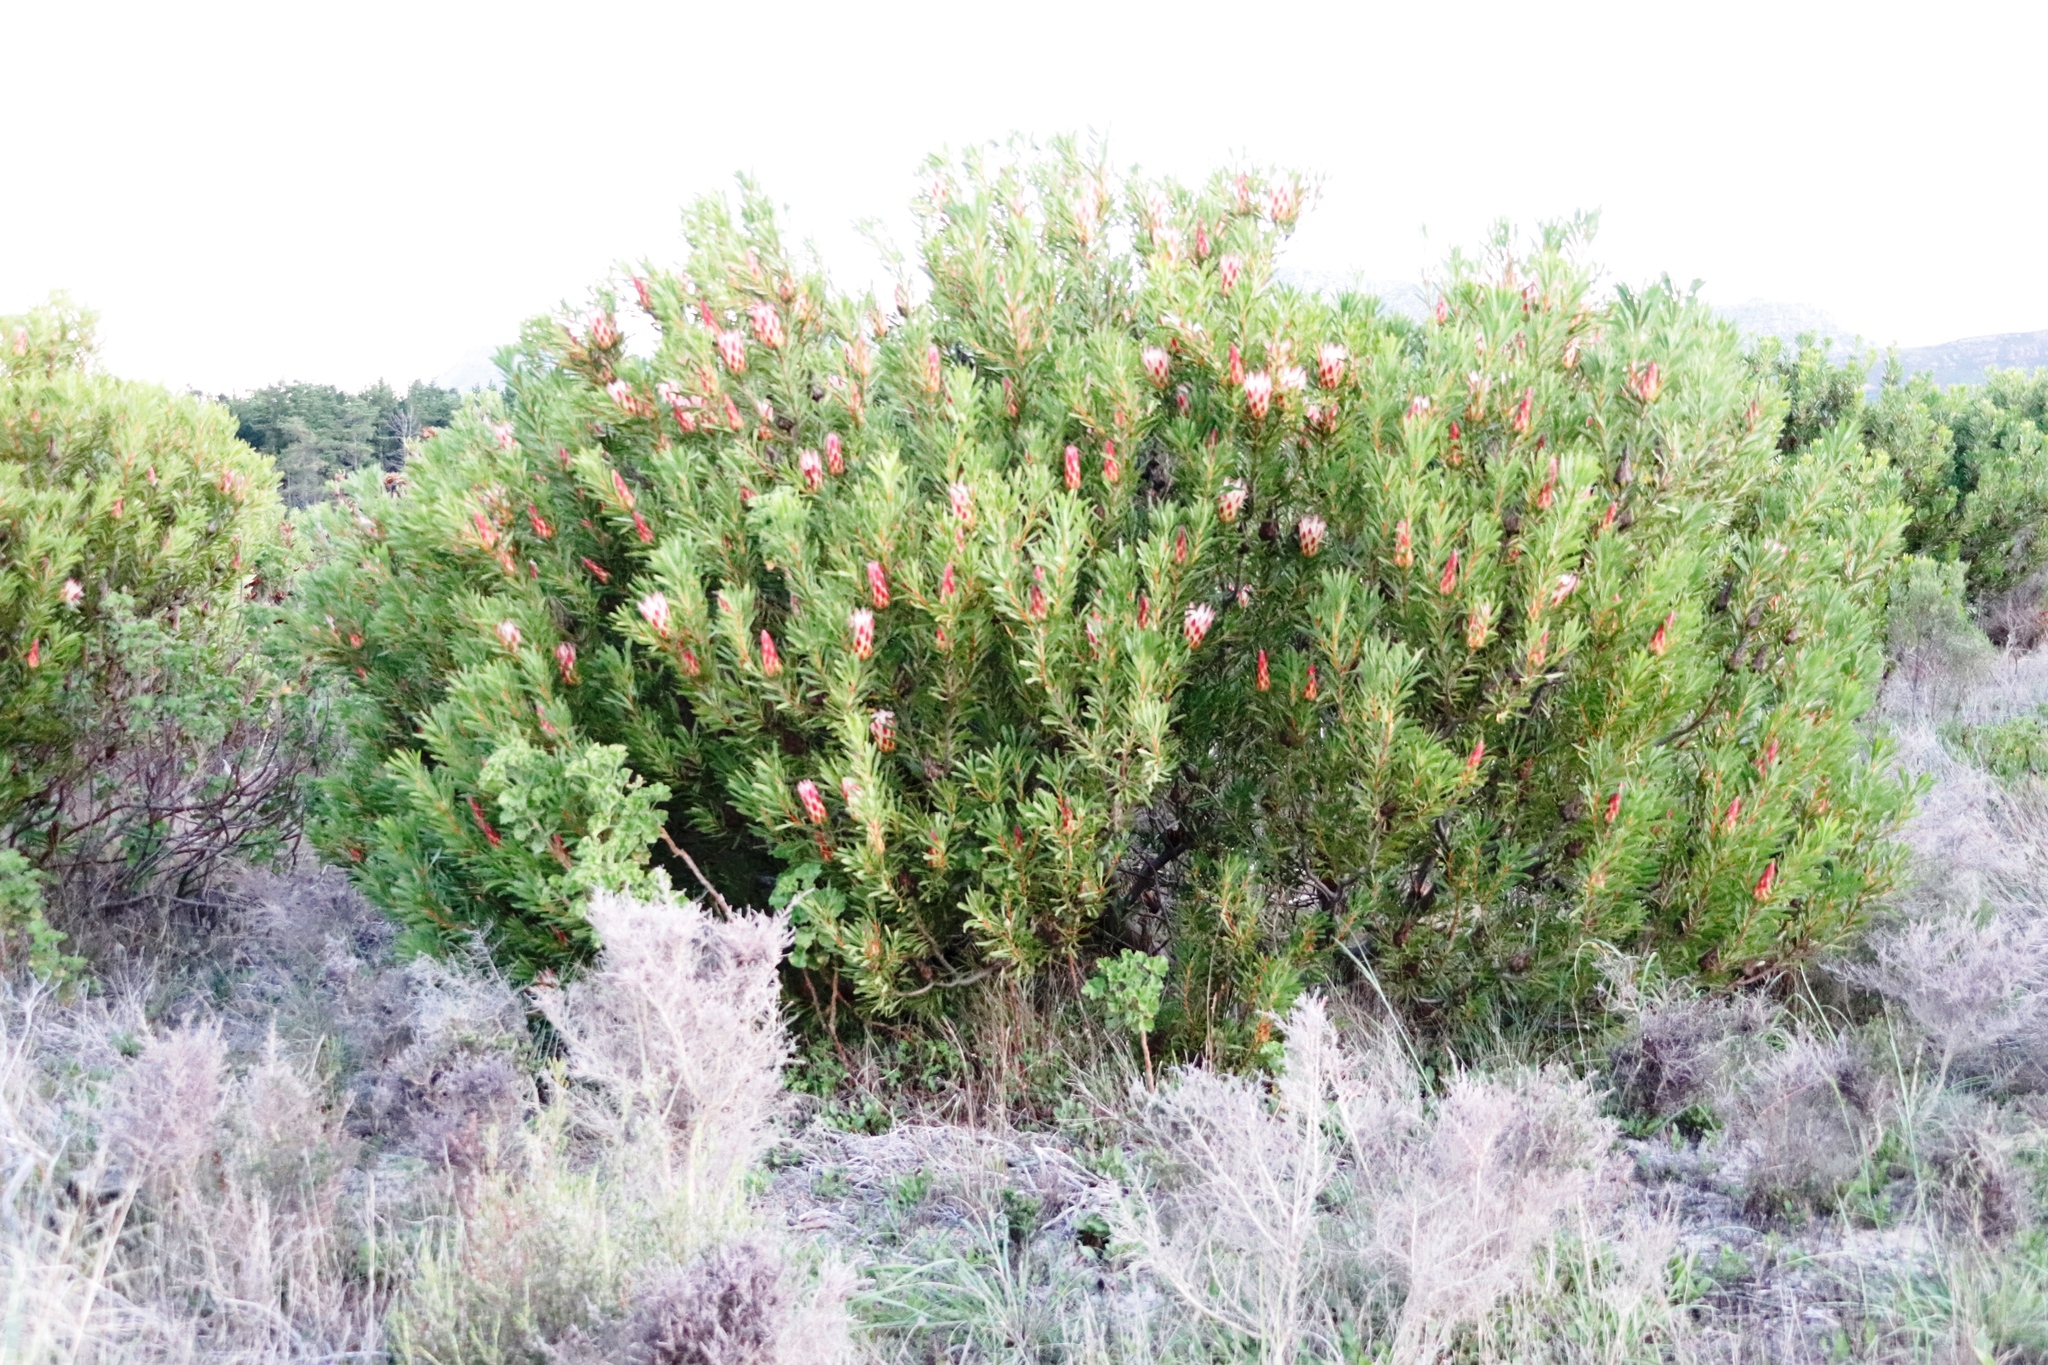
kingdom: Plantae
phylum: Tracheophyta
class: Magnoliopsida
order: Proteales
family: Proteaceae
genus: Protea
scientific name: Protea repens
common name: Sugarbush
